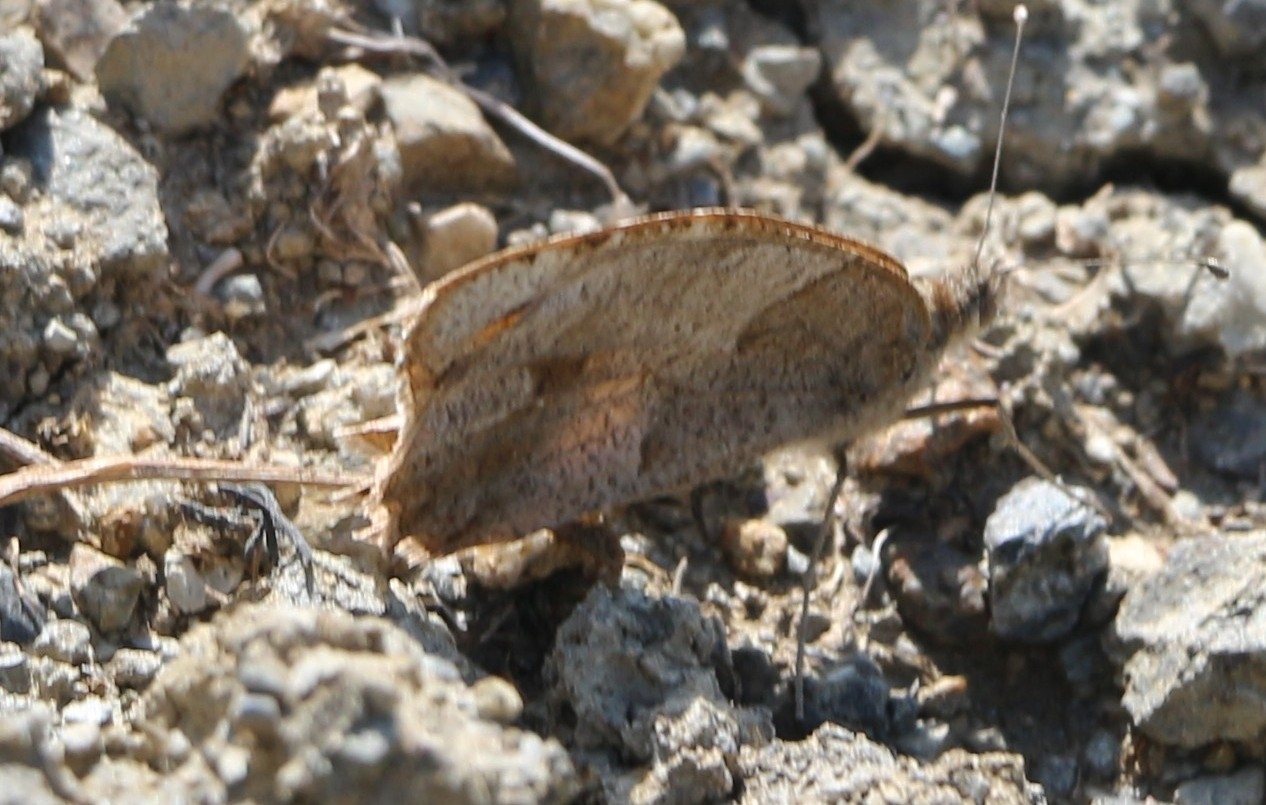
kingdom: Animalia
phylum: Arthropoda
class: Insecta
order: Lepidoptera
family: Nymphalidae
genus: Satyrus
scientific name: Satyrus briseis
